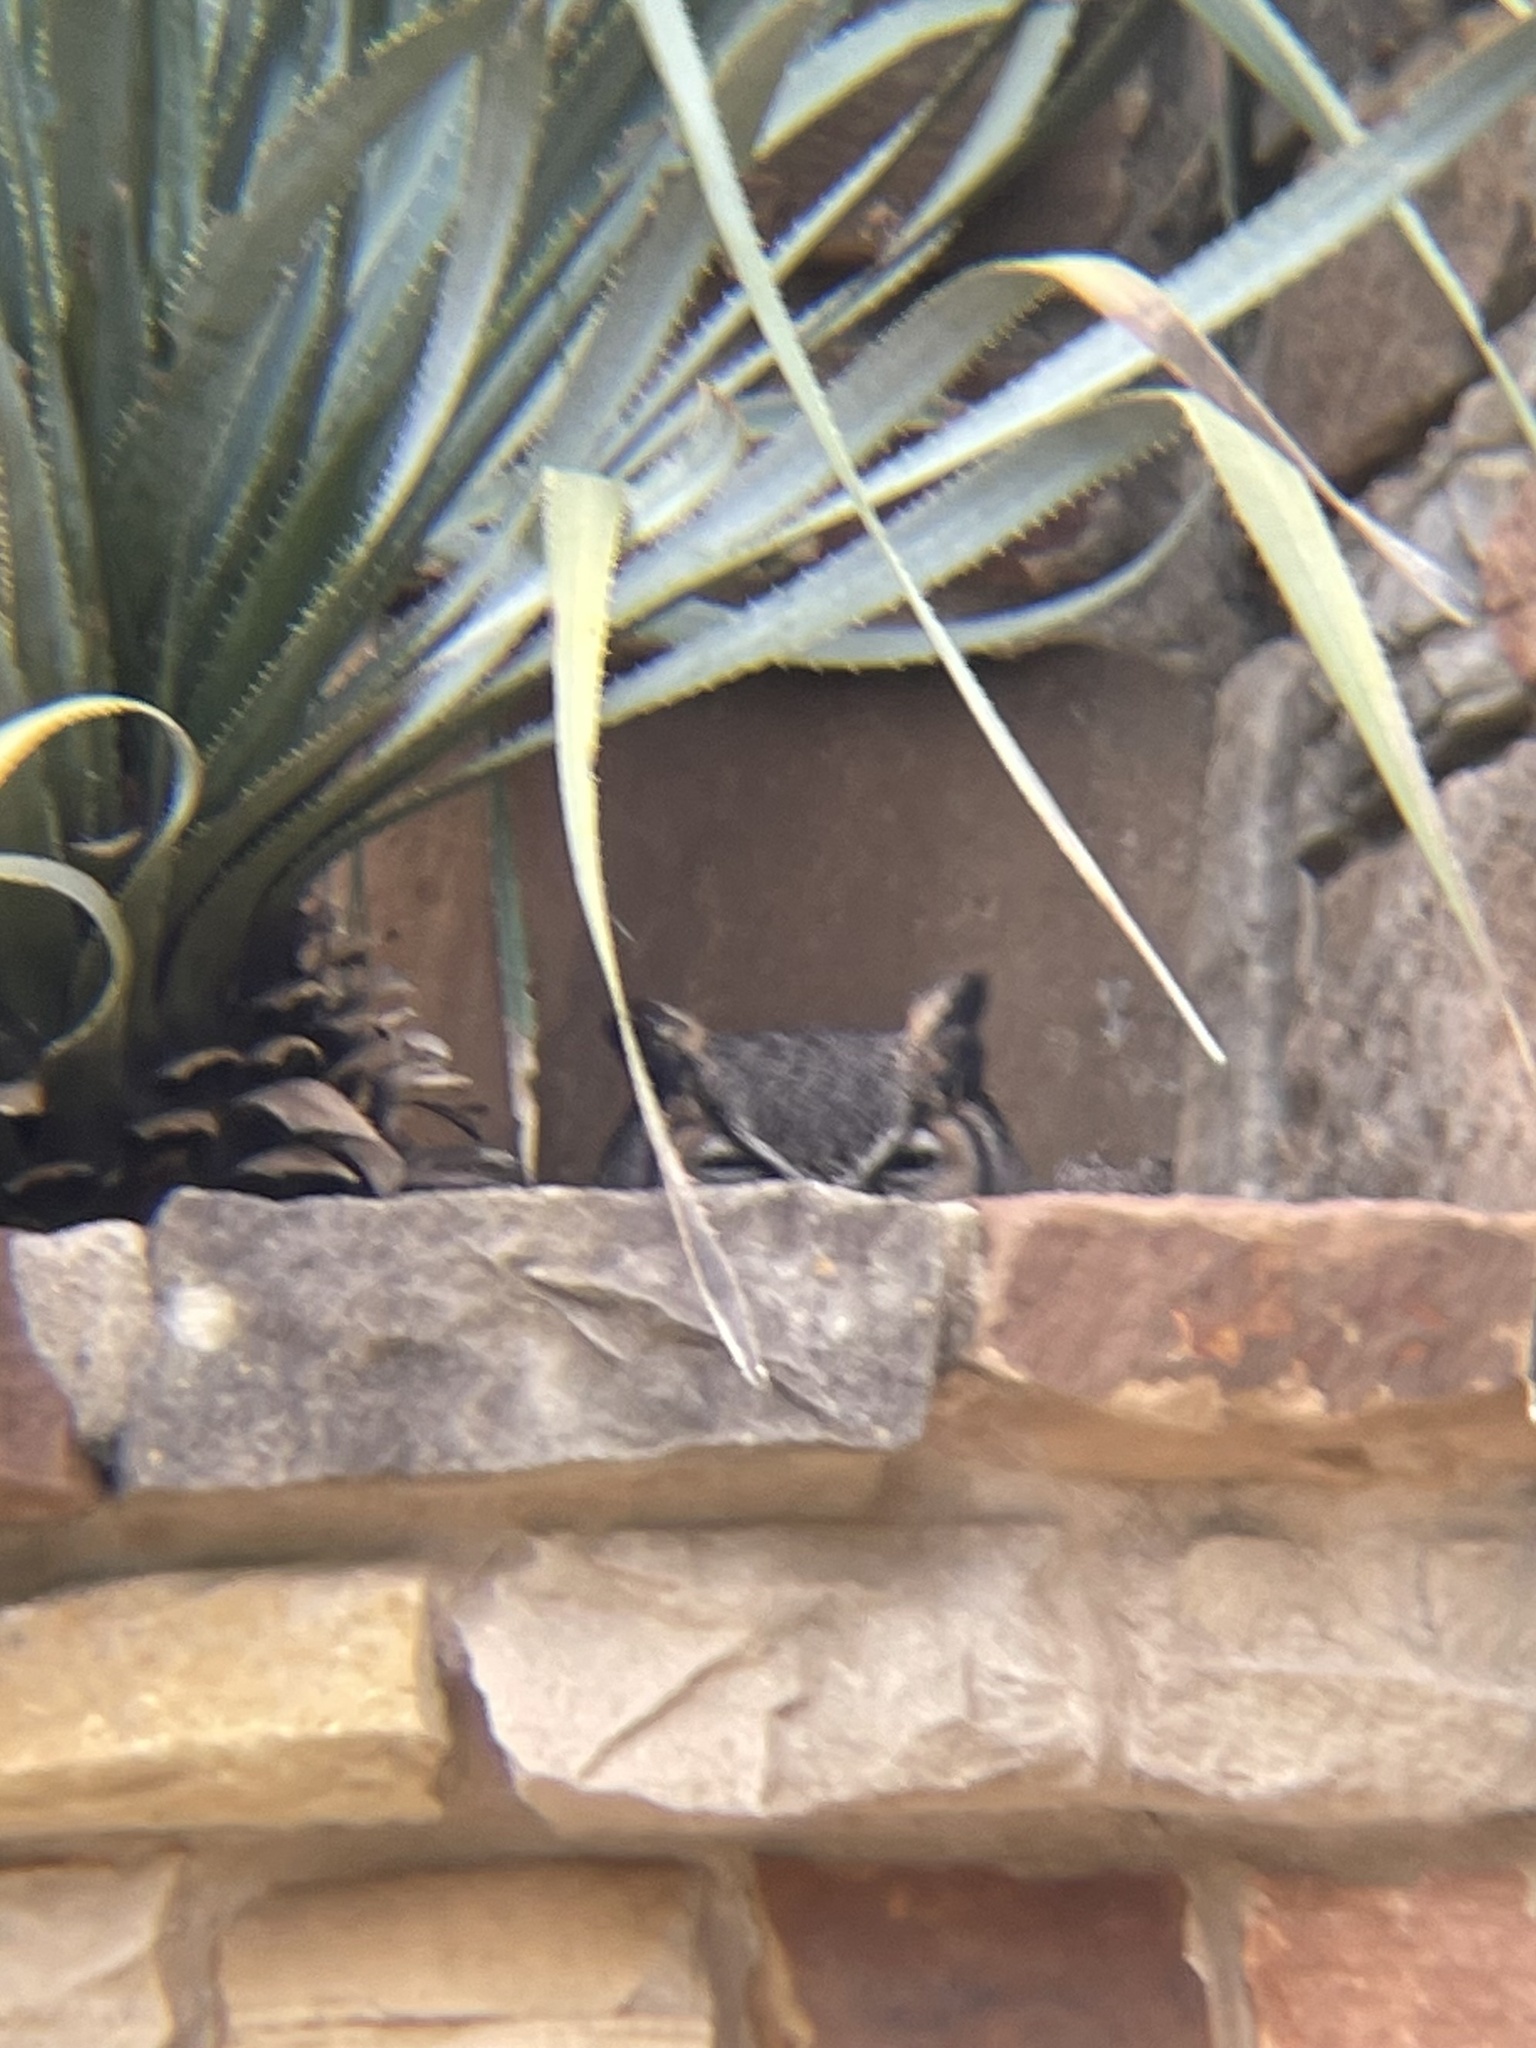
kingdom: Animalia
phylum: Chordata
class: Aves
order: Strigiformes
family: Strigidae
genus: Bubo
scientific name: Bubo virginianus
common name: Great horned owl
